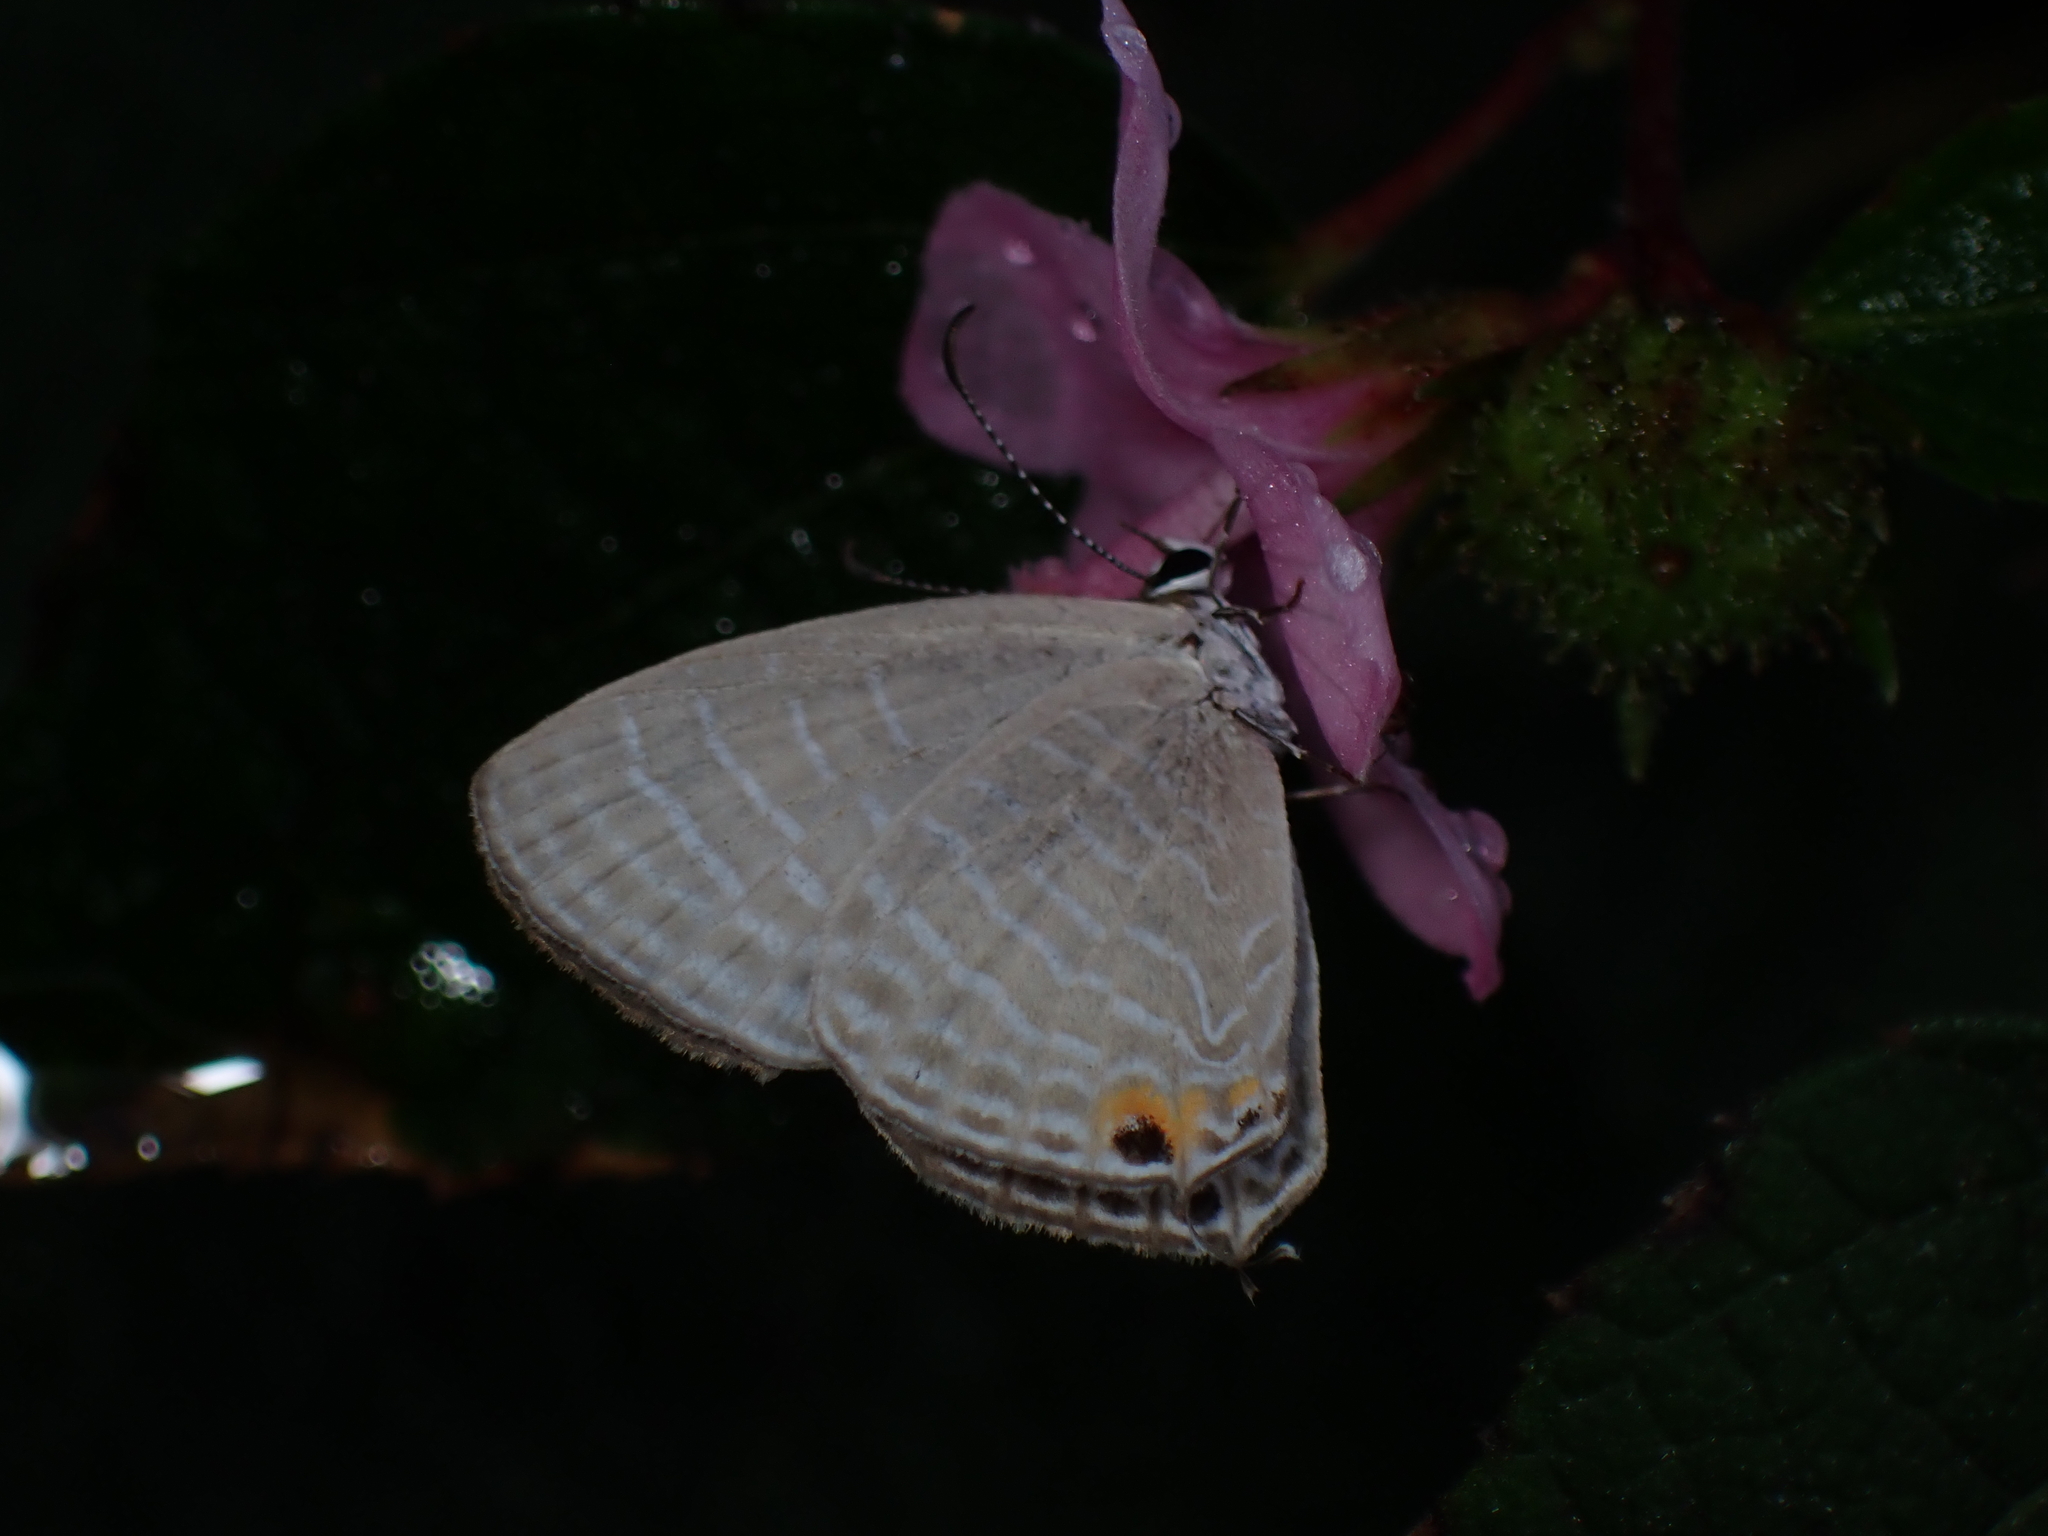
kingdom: Animalia
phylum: Arthropoda
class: Insecta
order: Lepidoptera
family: Lycaenidae
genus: Jamides
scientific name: Jamides celeno
